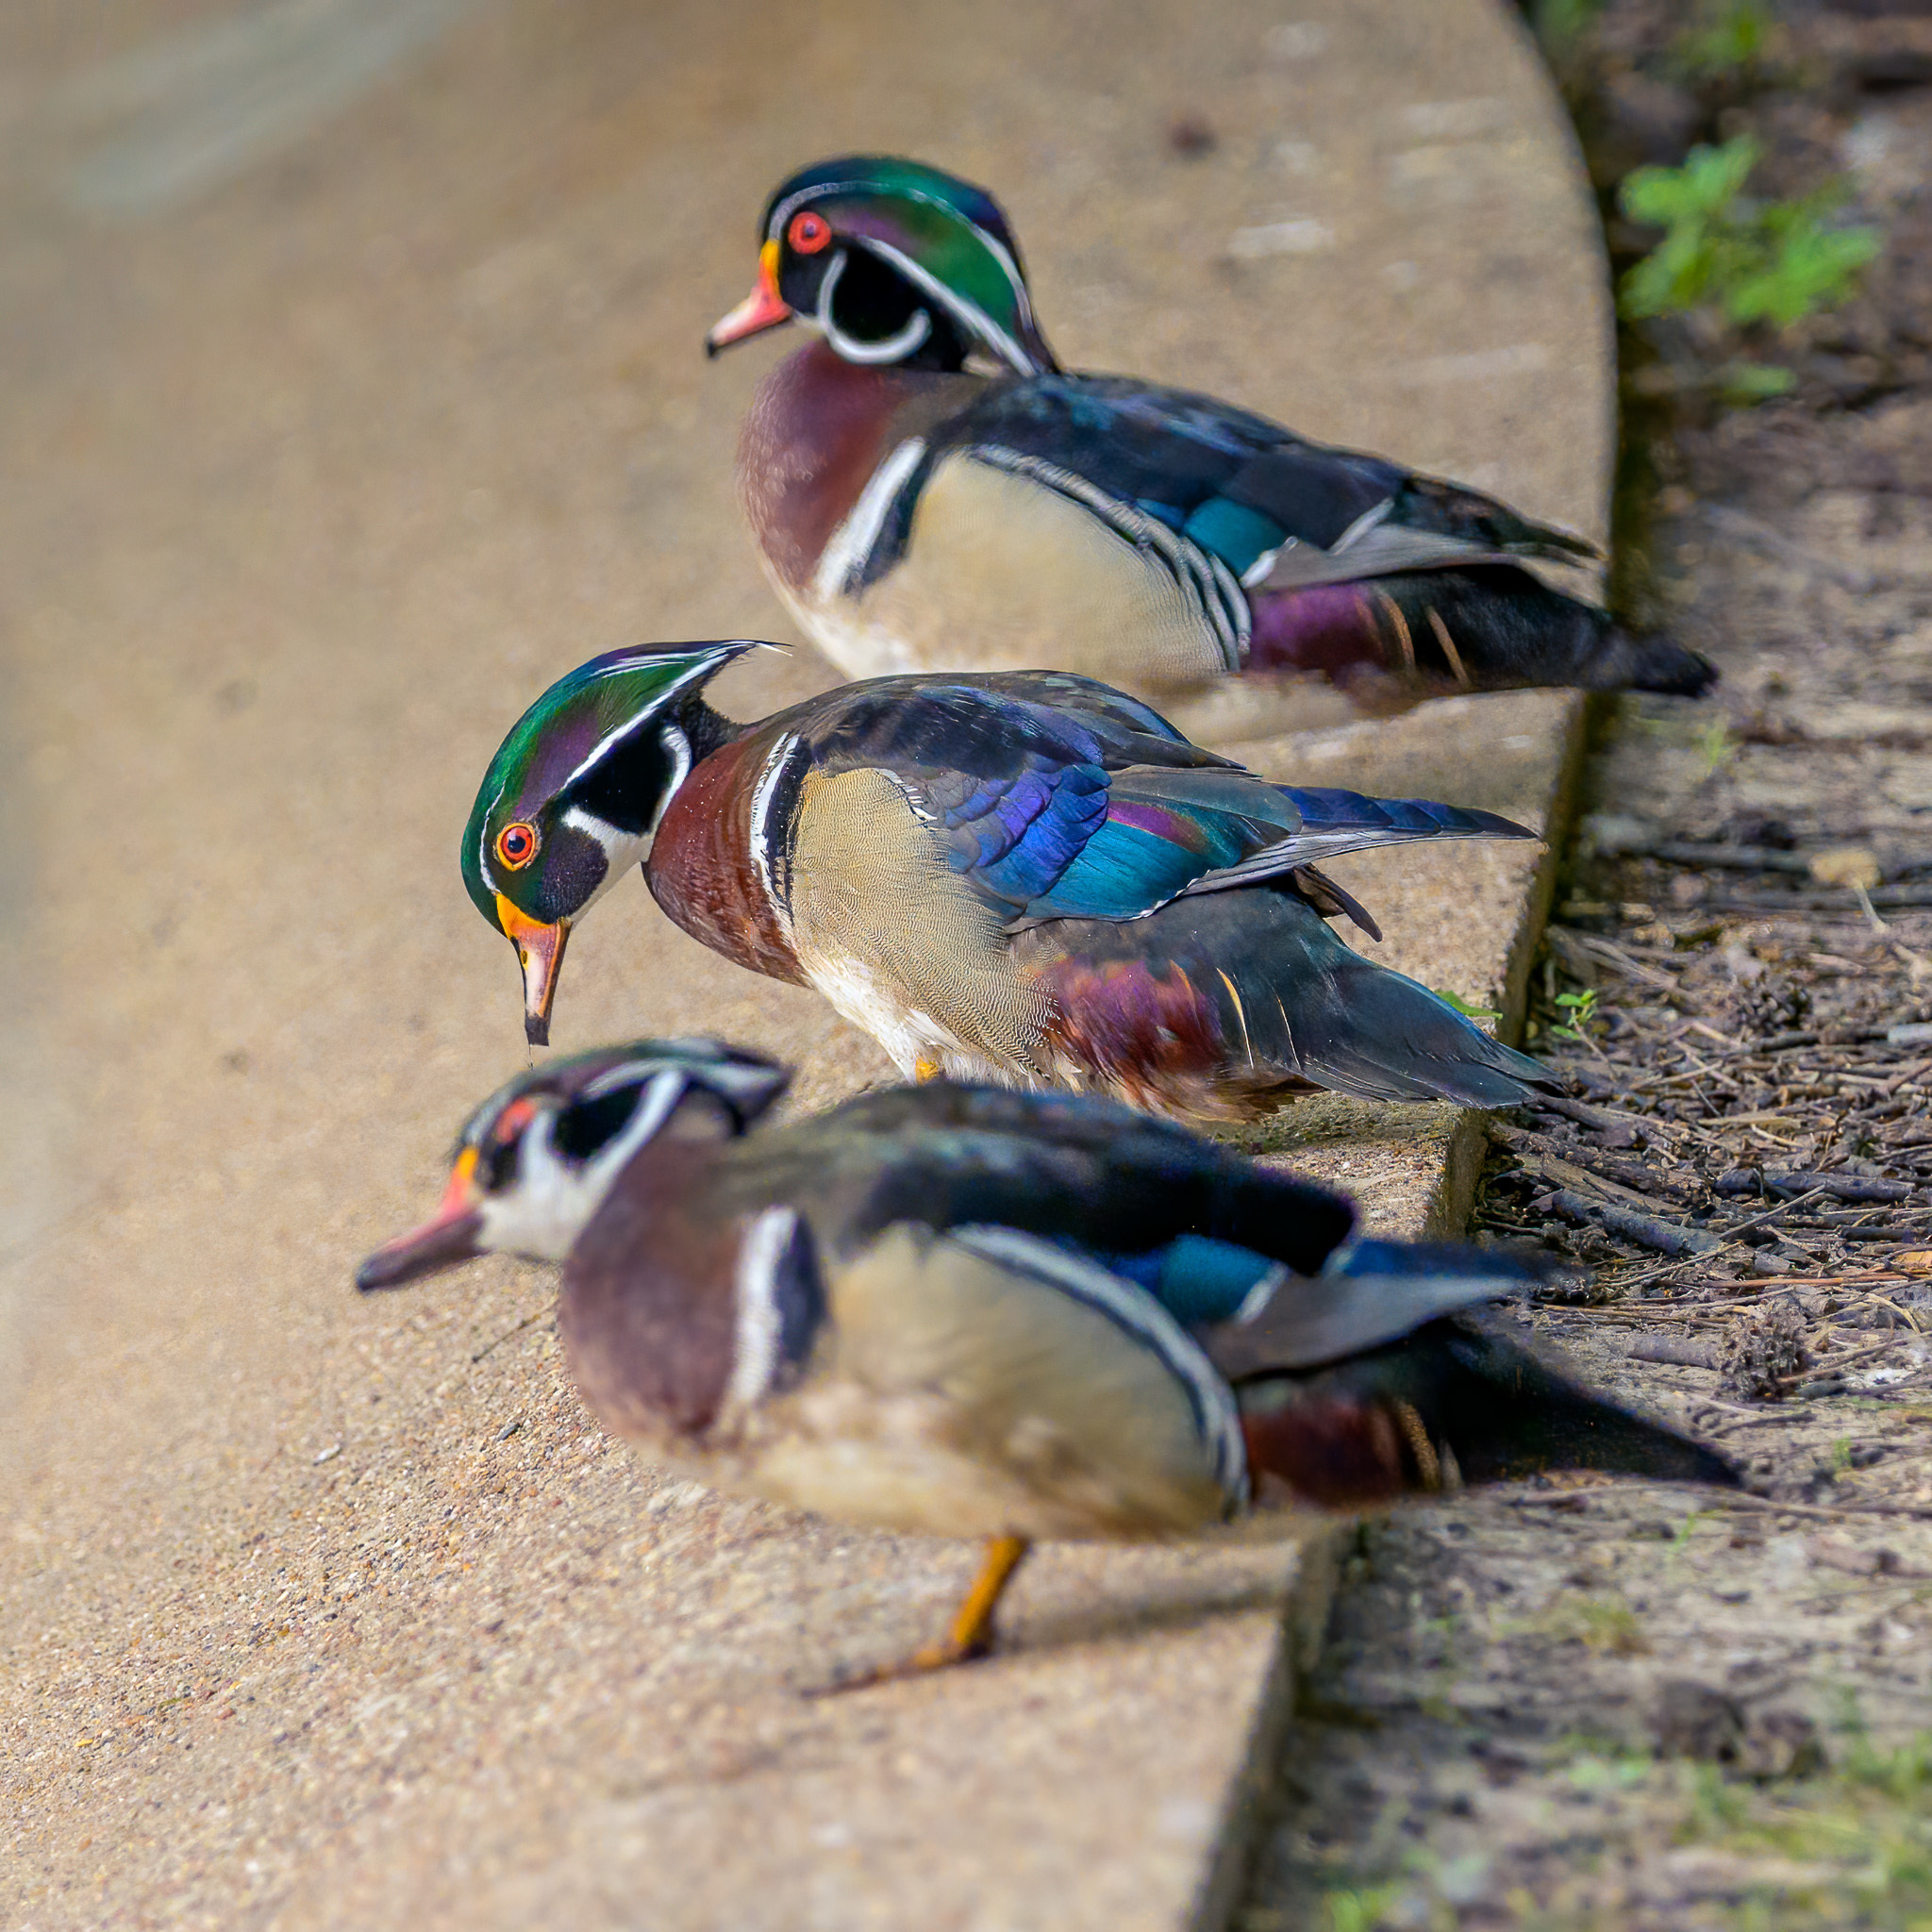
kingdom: Animalia
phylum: Chordata
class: Aves
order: Anseriformes
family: Anatidae
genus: Aix
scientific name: Aix sponsa
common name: Wood duck
